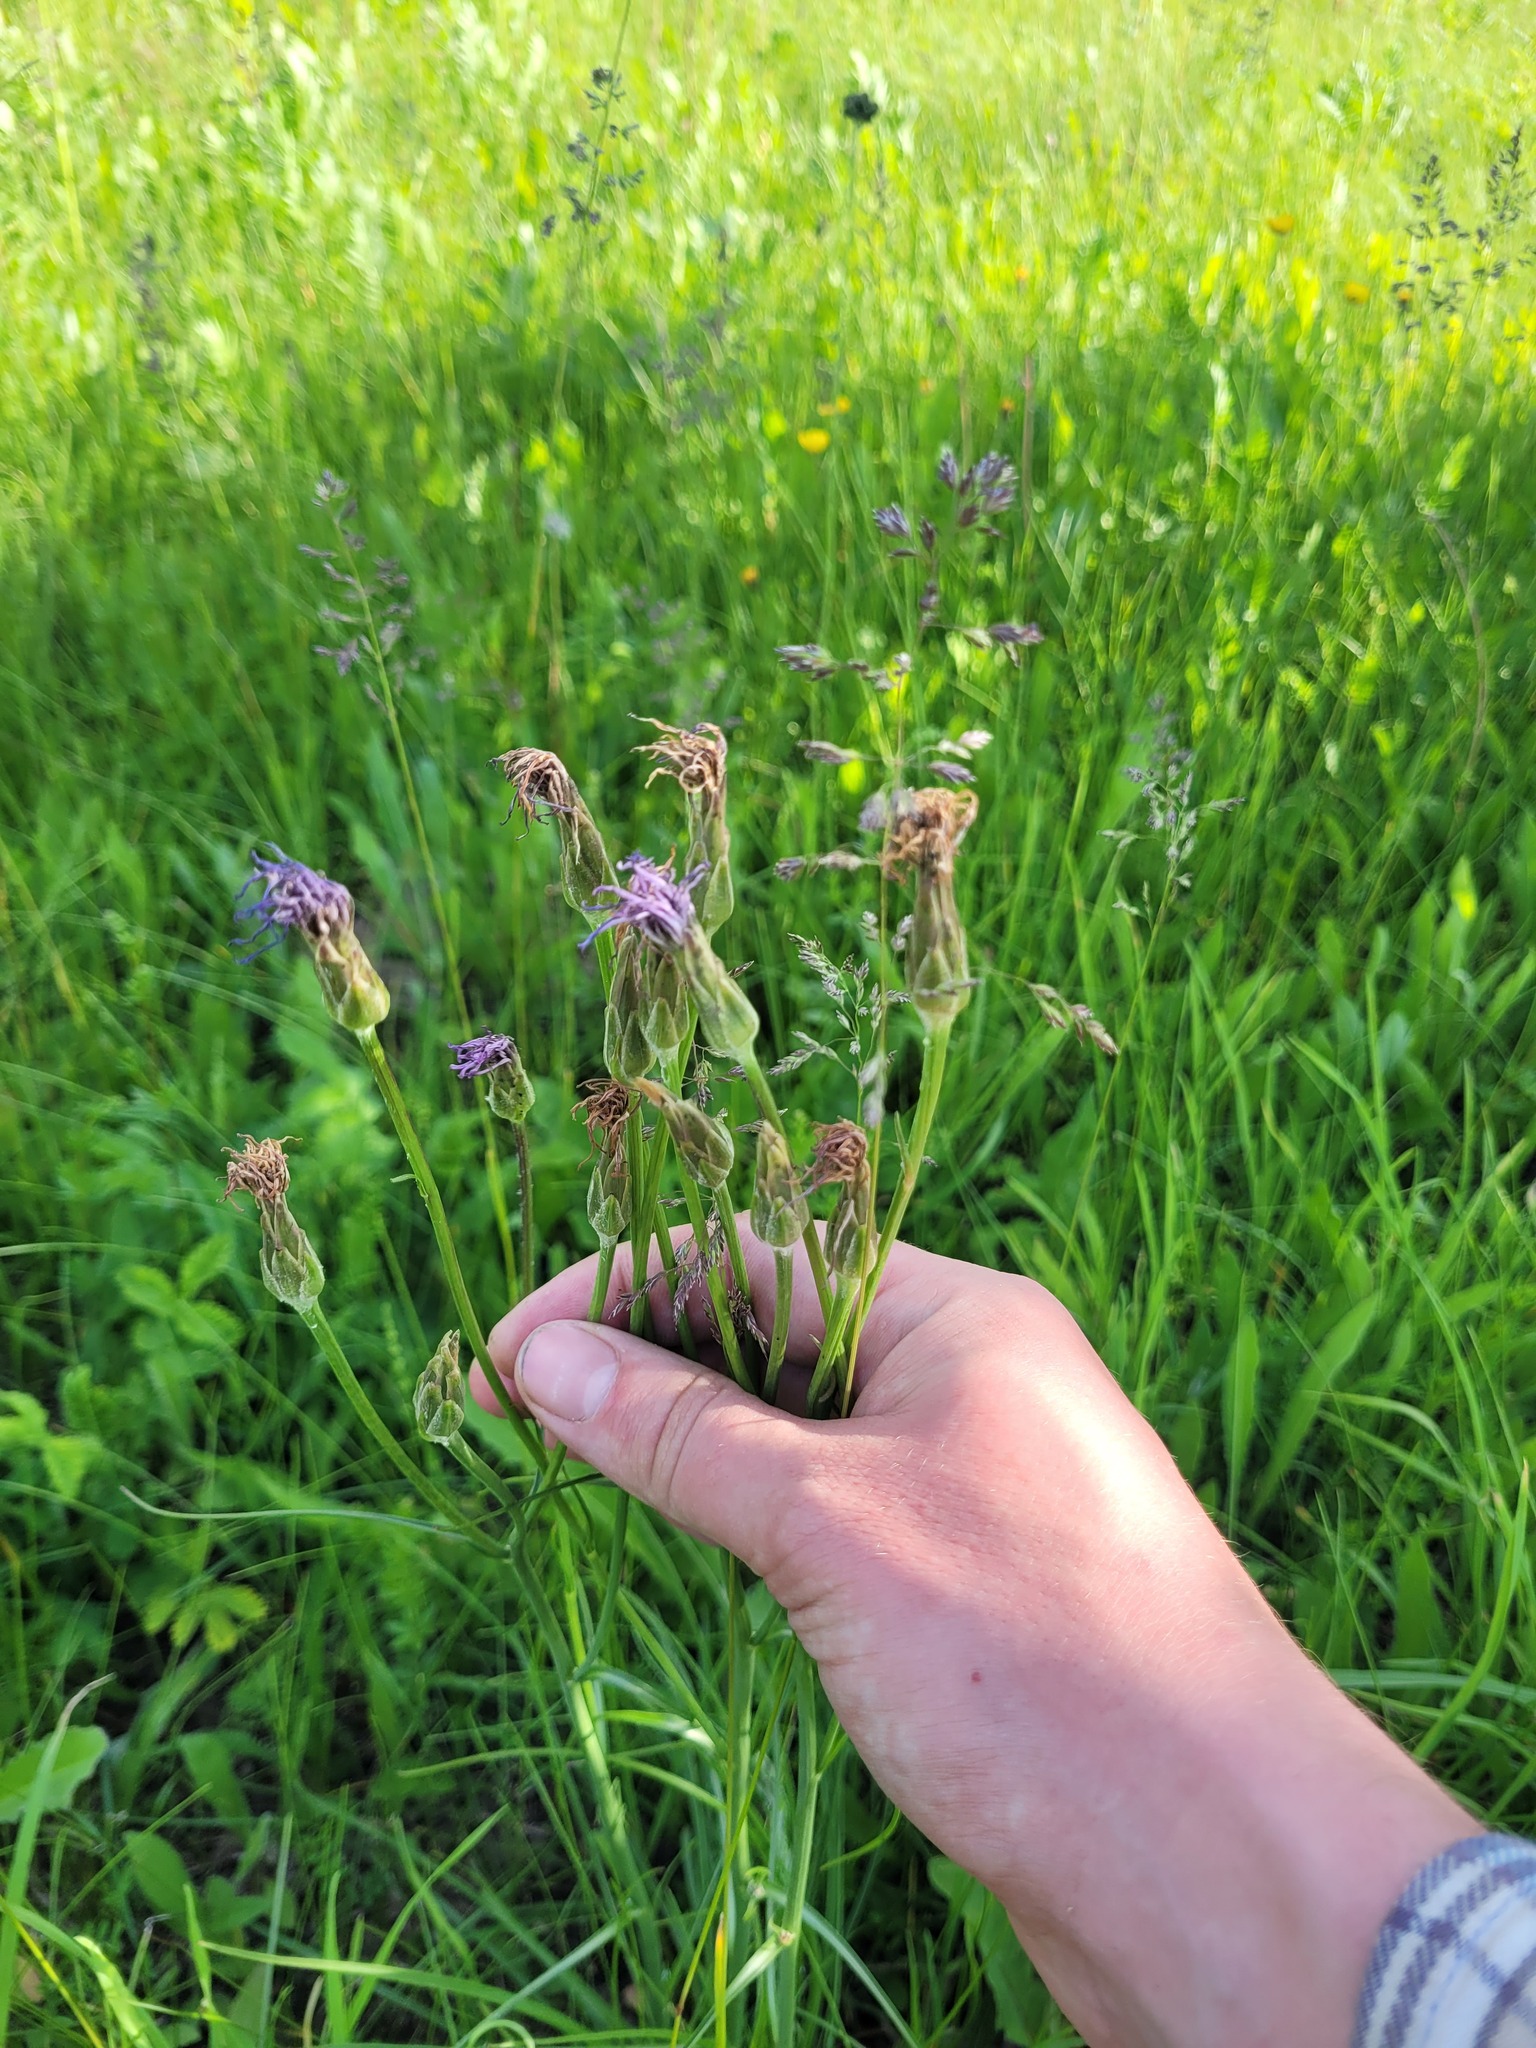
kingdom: Plantae
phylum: Tracheophyta
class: Magnoliopsida
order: Asterales
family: Asteraceae
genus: Scorzonera
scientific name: Scorzonera purpurea
